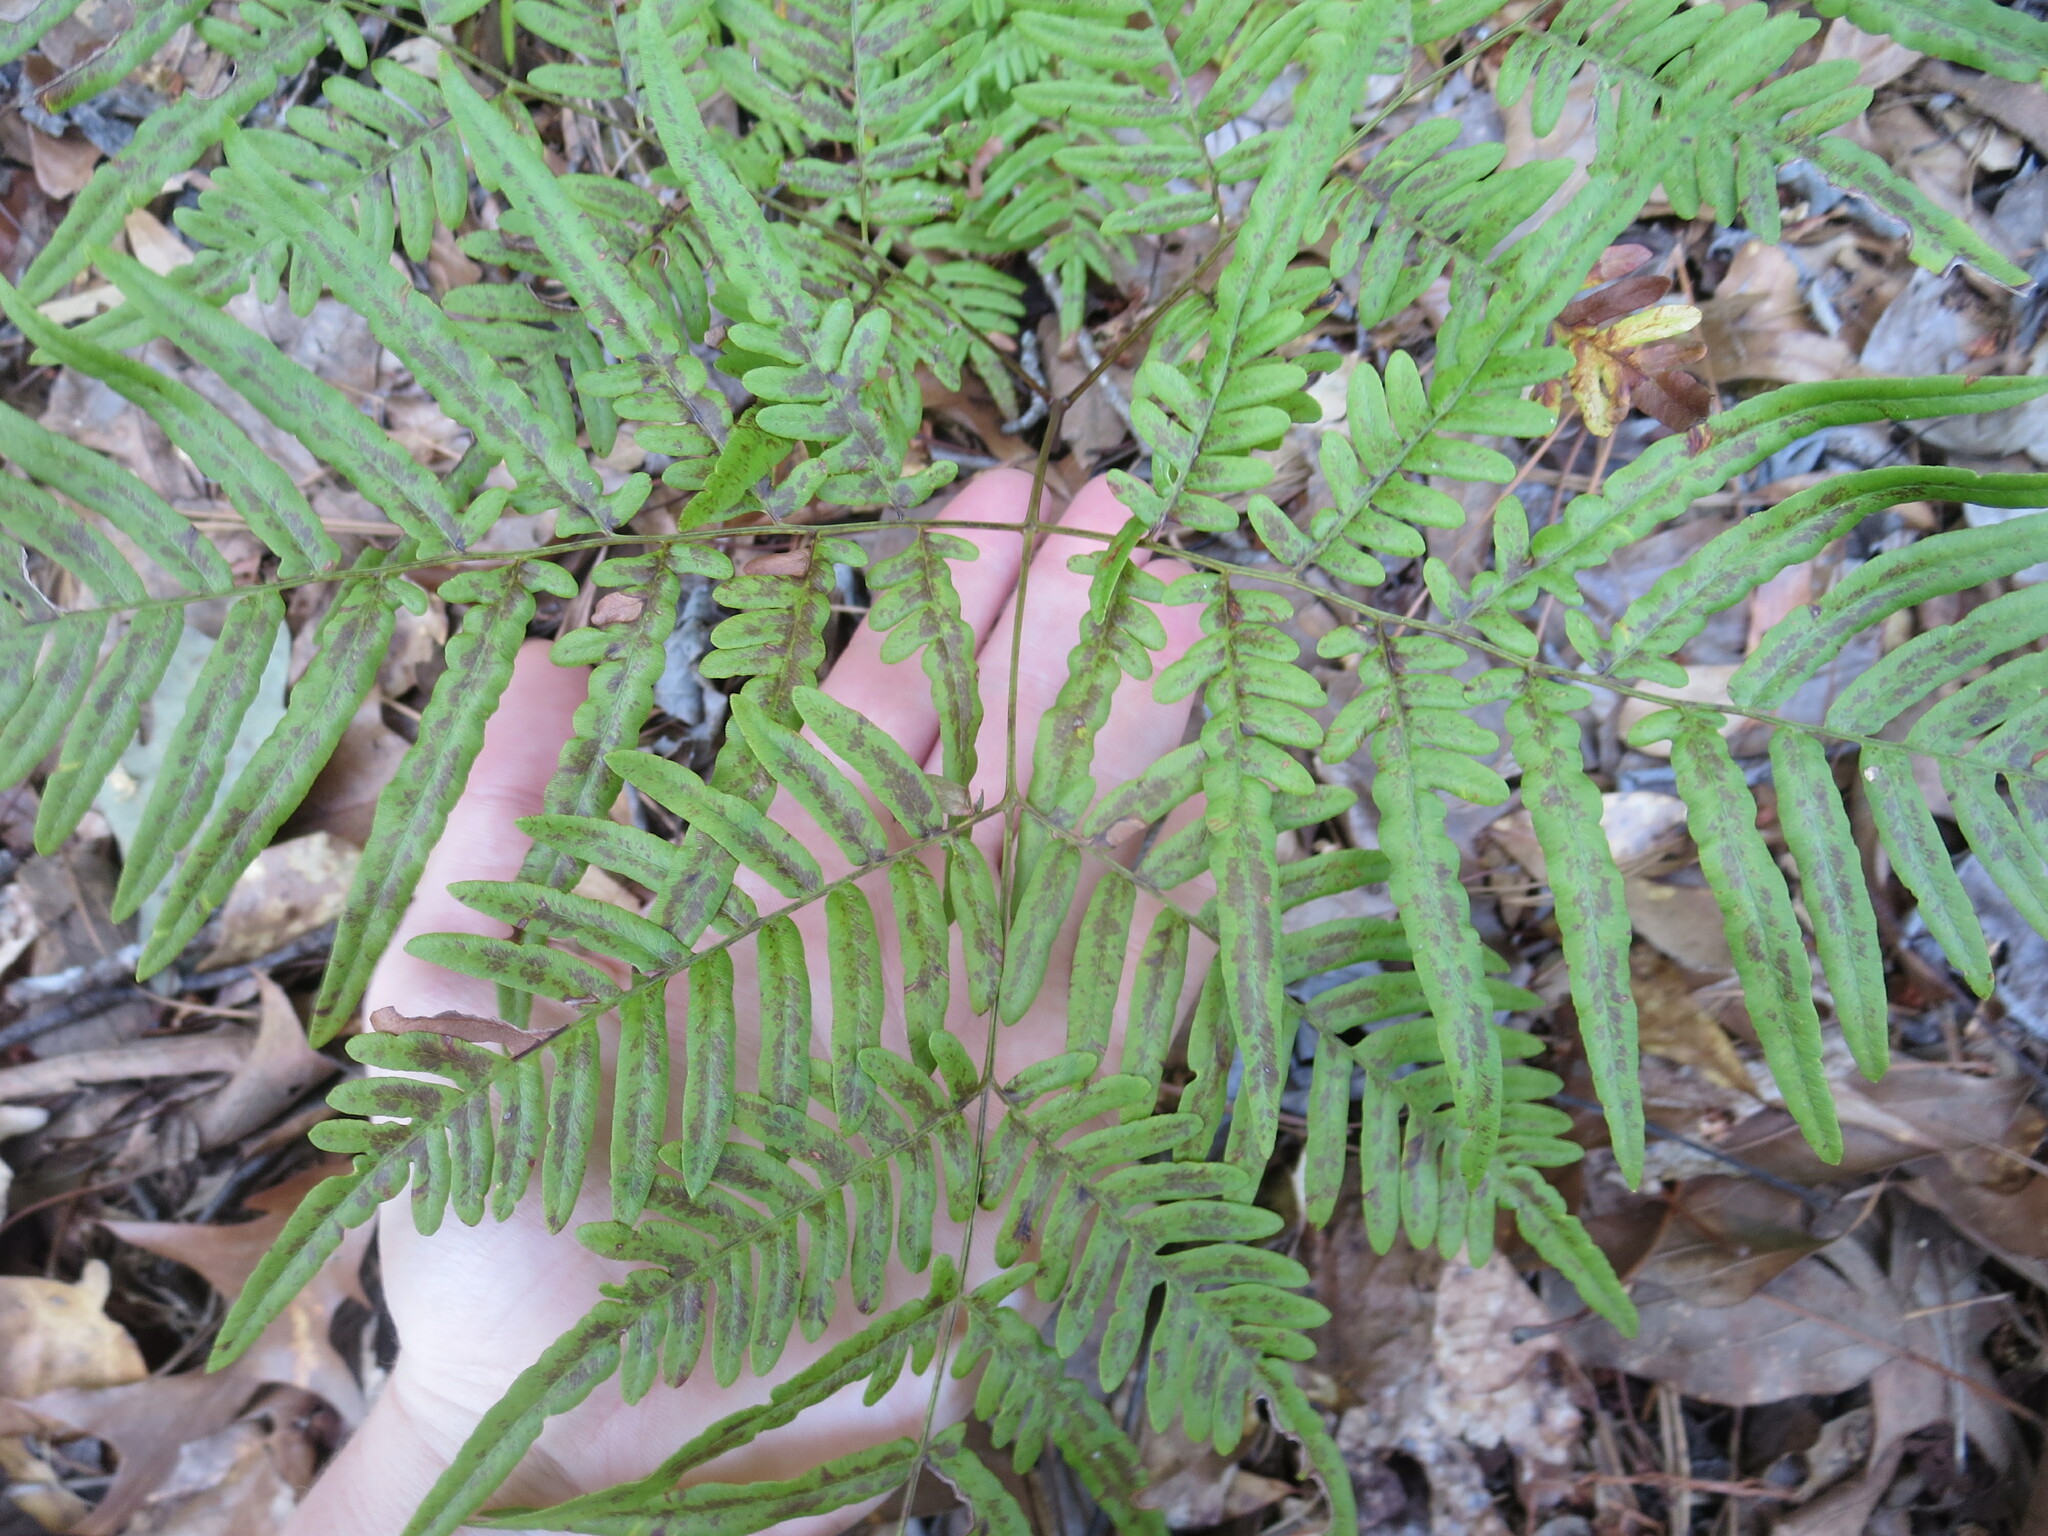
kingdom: Plantae
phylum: Tracheophyta
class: Polypodiopsida
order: Polypodiales
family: Dennstaedtiaceae
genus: Pteridium
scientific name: Pteridium
